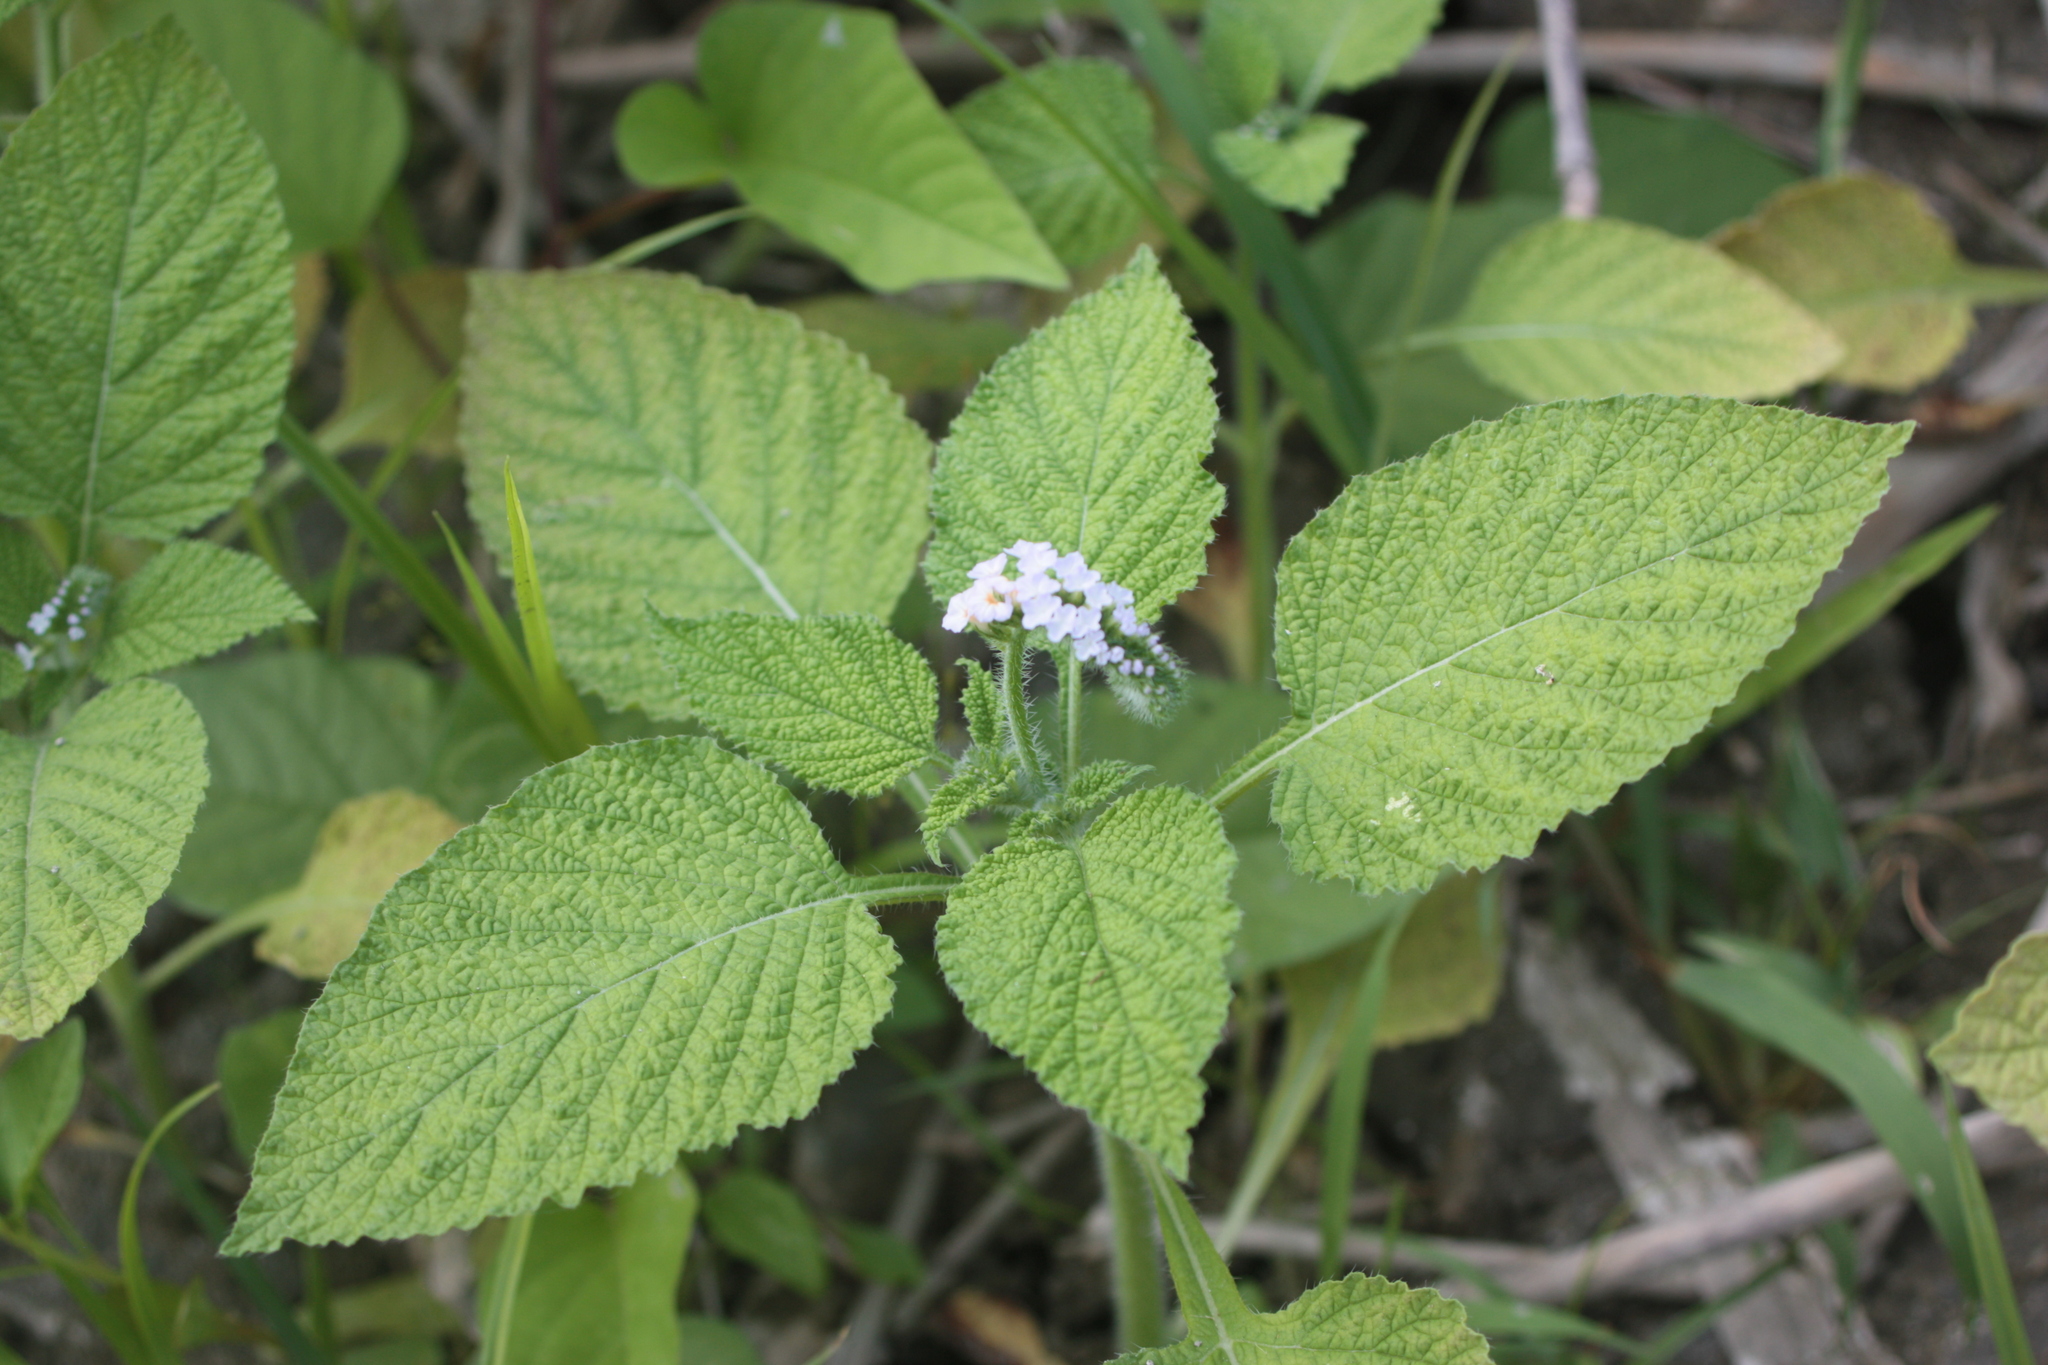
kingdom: Plantae
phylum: Tracheophyta
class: Magnoliopsida
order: Boraginales
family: Heliotropiaceae
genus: Heliotropium
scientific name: Heliotropium indicum
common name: Indian heliotrope
